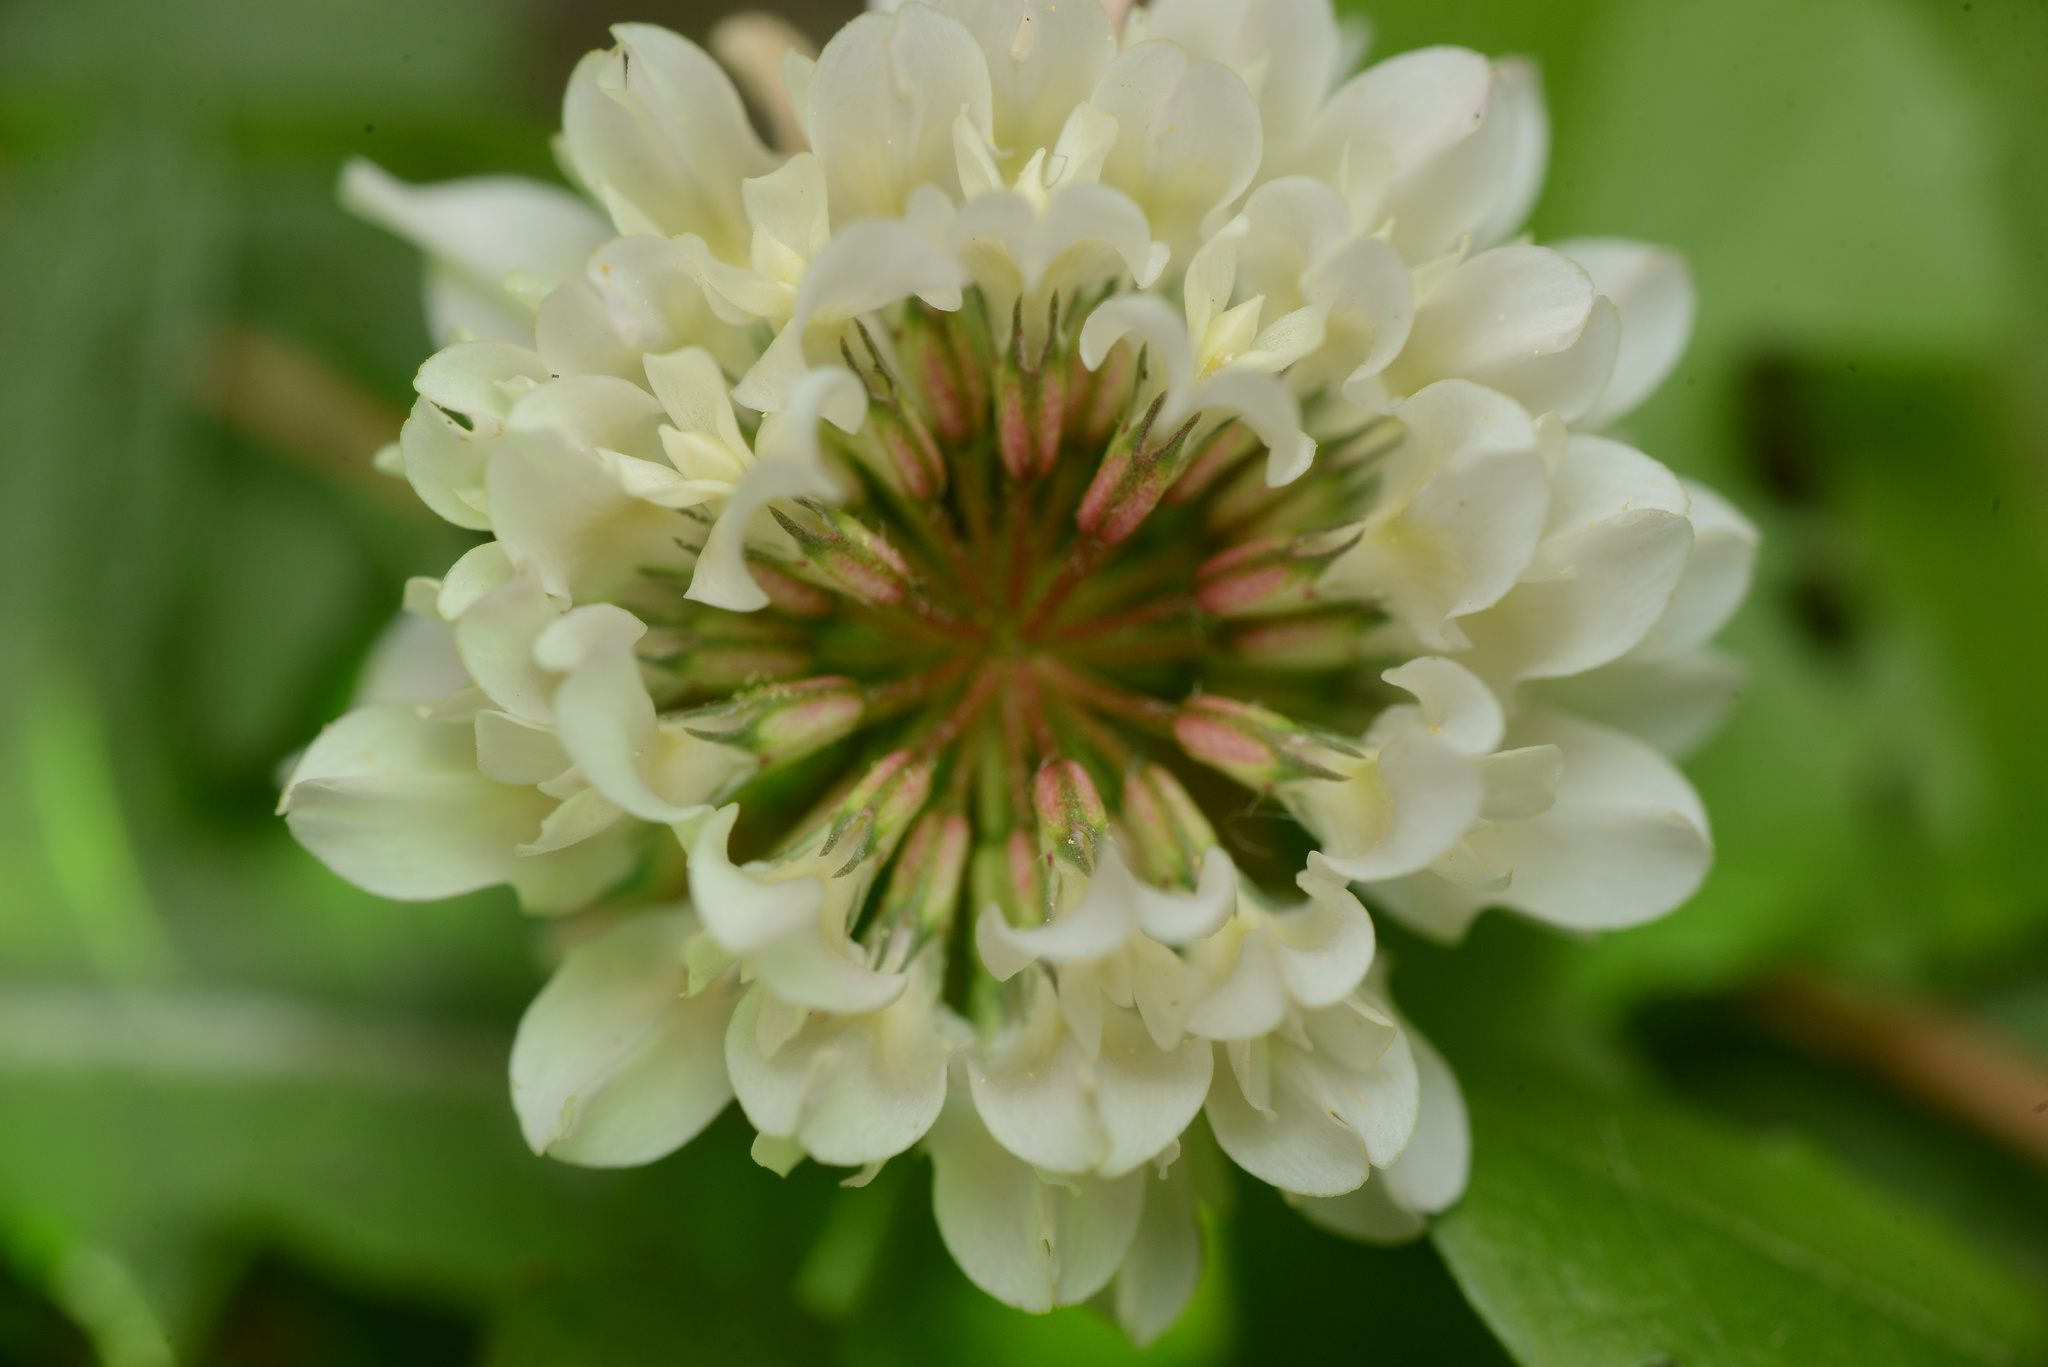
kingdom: Plantae
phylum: Tracheophyta
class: Magnoliopsida
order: Fabales
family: Fabaceae
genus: Trifolium
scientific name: Trifolium repens
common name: White clover
